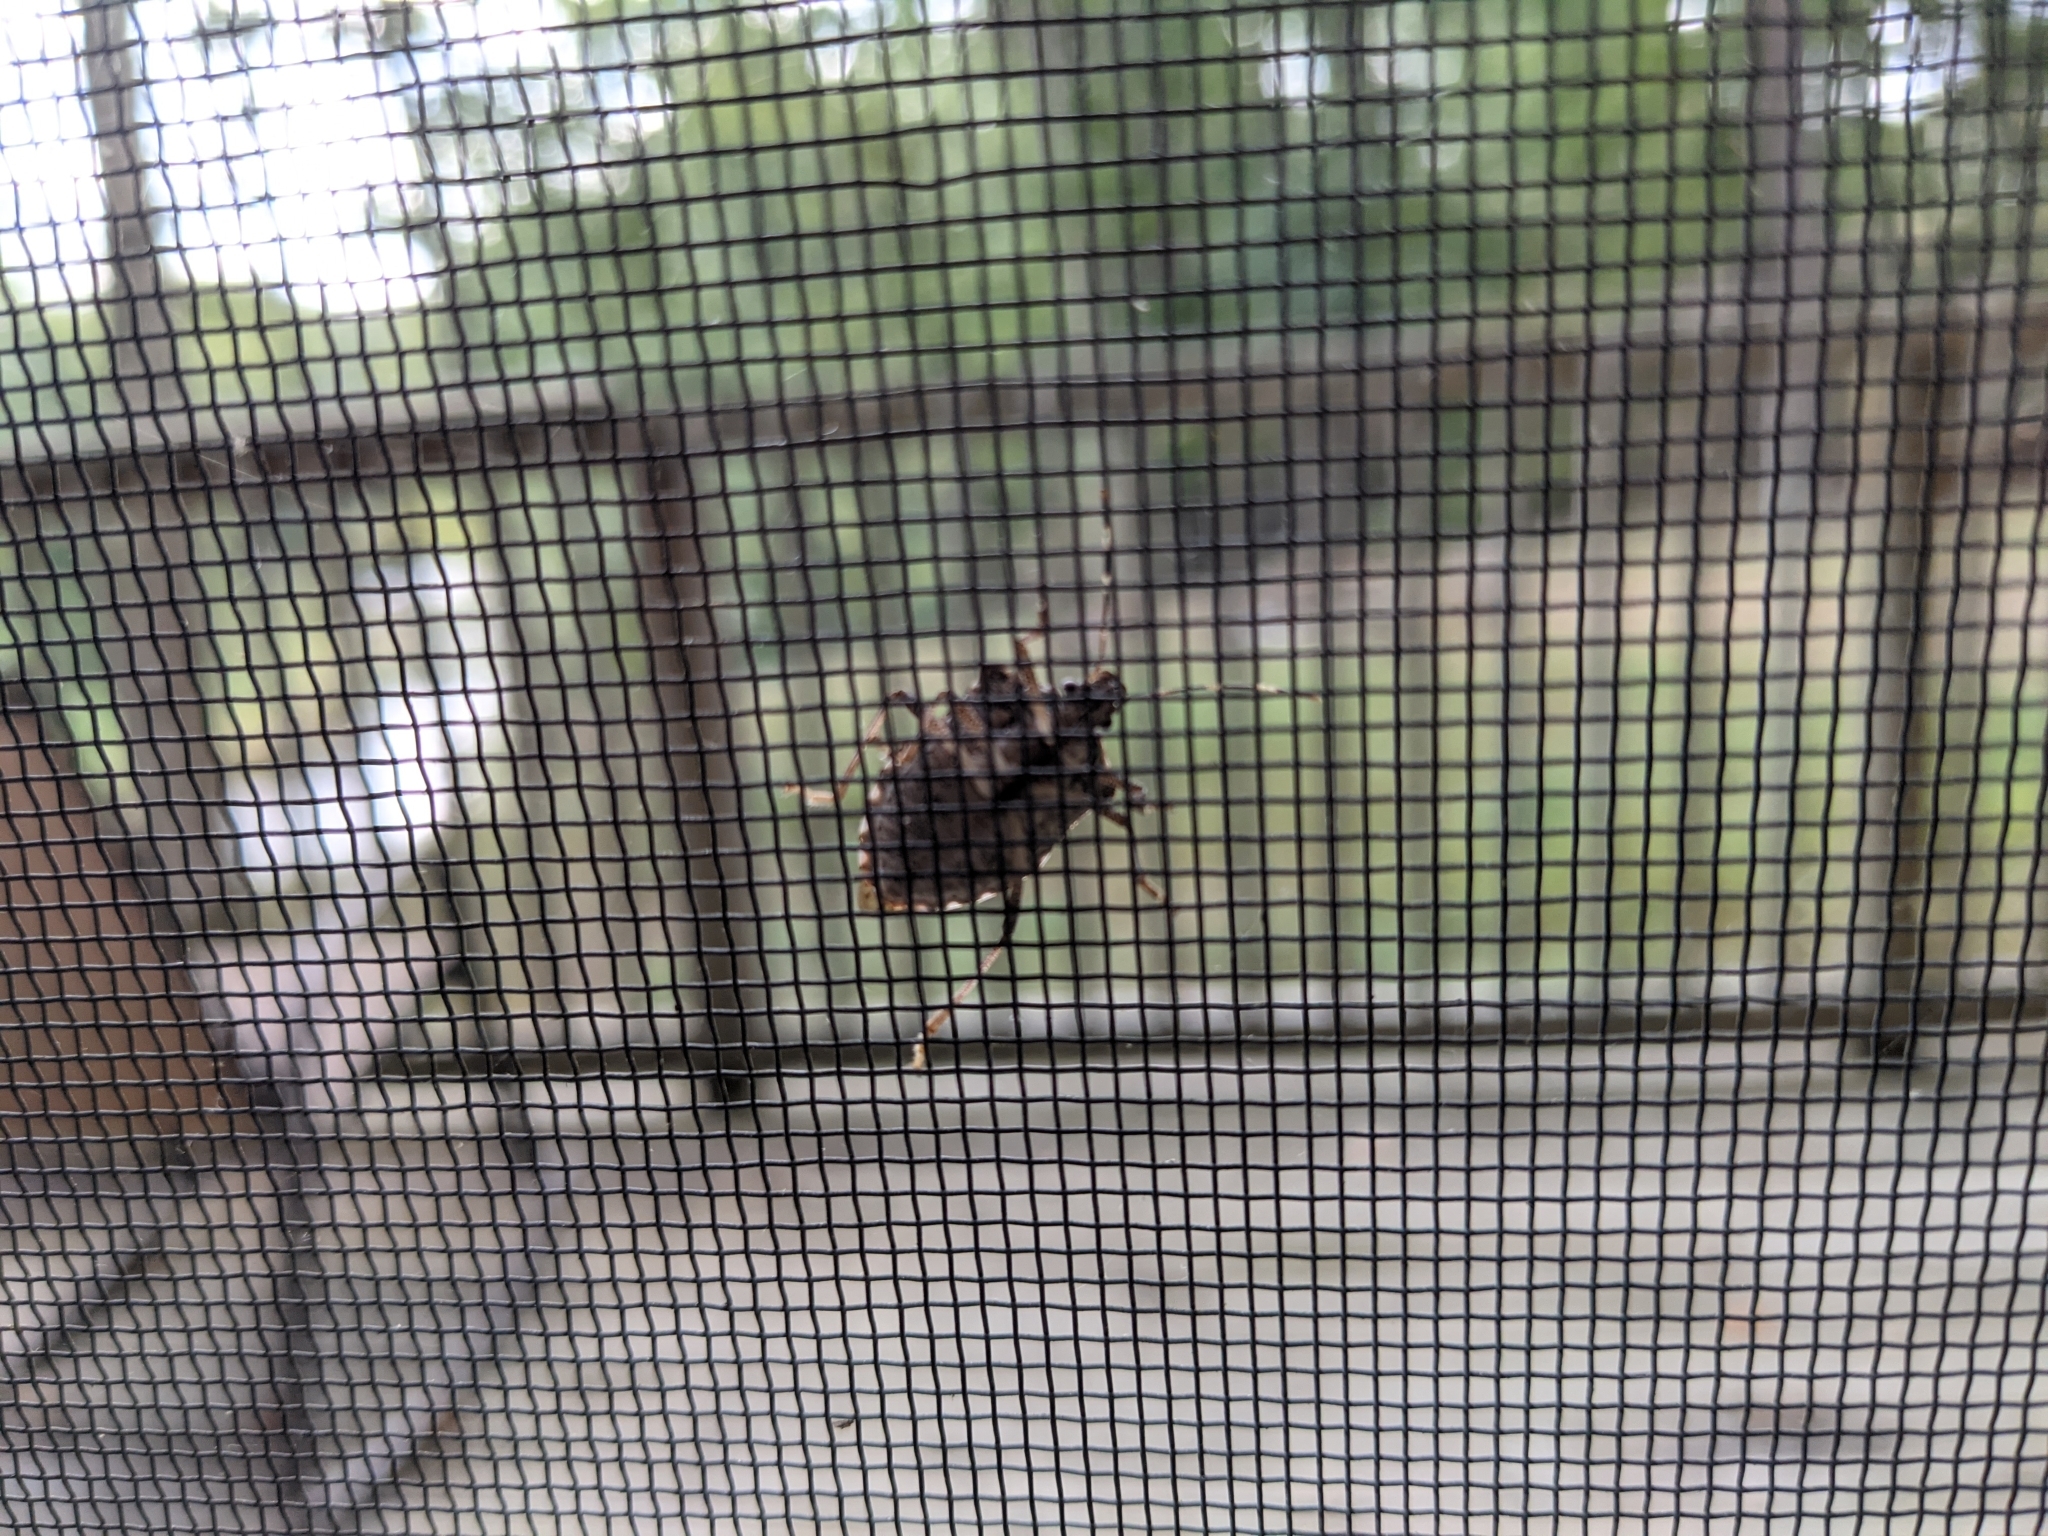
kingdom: Animalia
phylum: Arthropoda
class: Insecta
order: Hemiptera
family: Pentatomidae
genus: Halyomorpha
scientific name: Halyomorpha halys
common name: Brown marmorated stink bug
